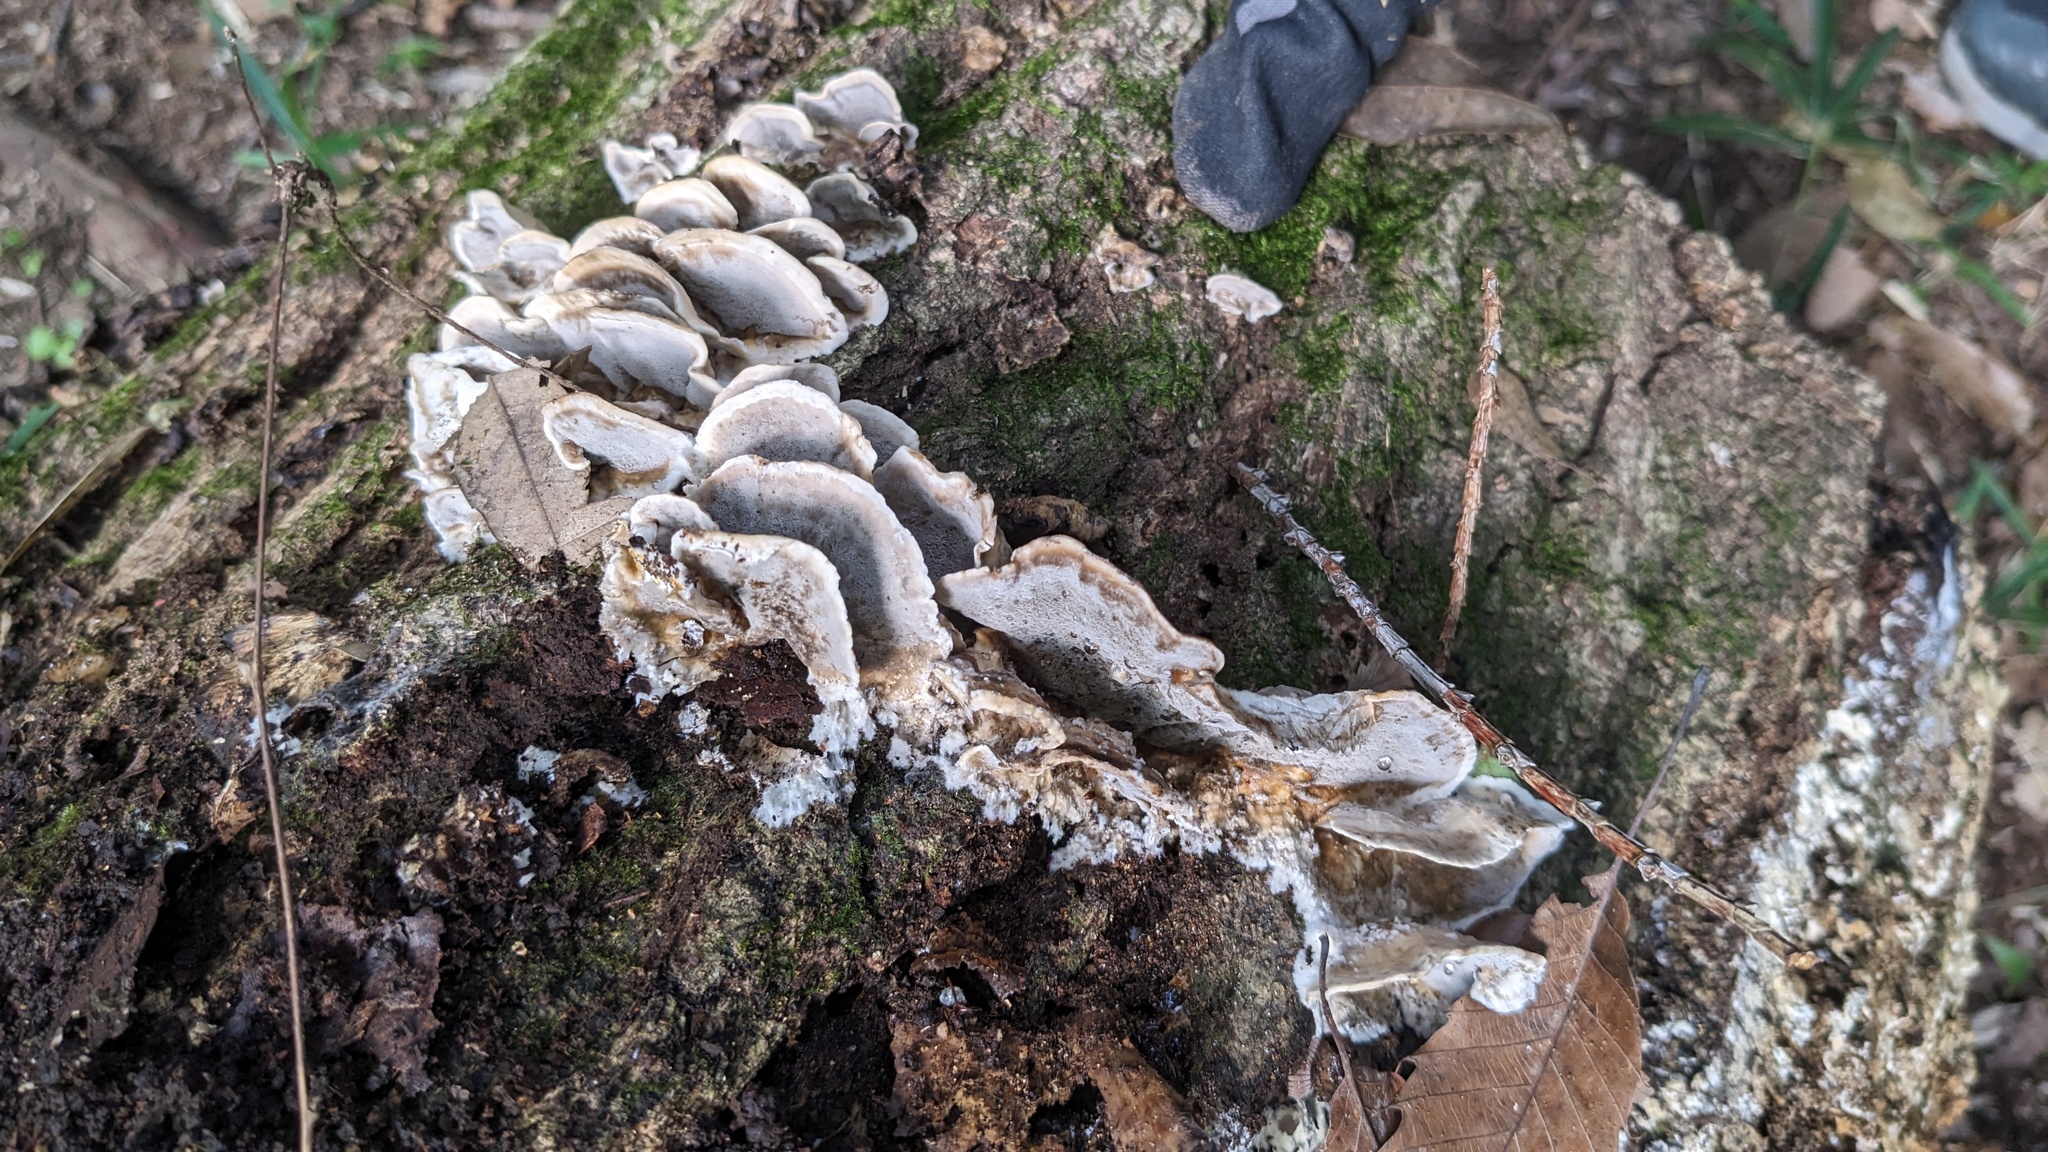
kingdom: Fungi
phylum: Basidiomycota
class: Agaricomycetes
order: Polyporales
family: Phanerochaetaceae
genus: Bjerkandera
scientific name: Bjerkandera adusta
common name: Smoky bracket
